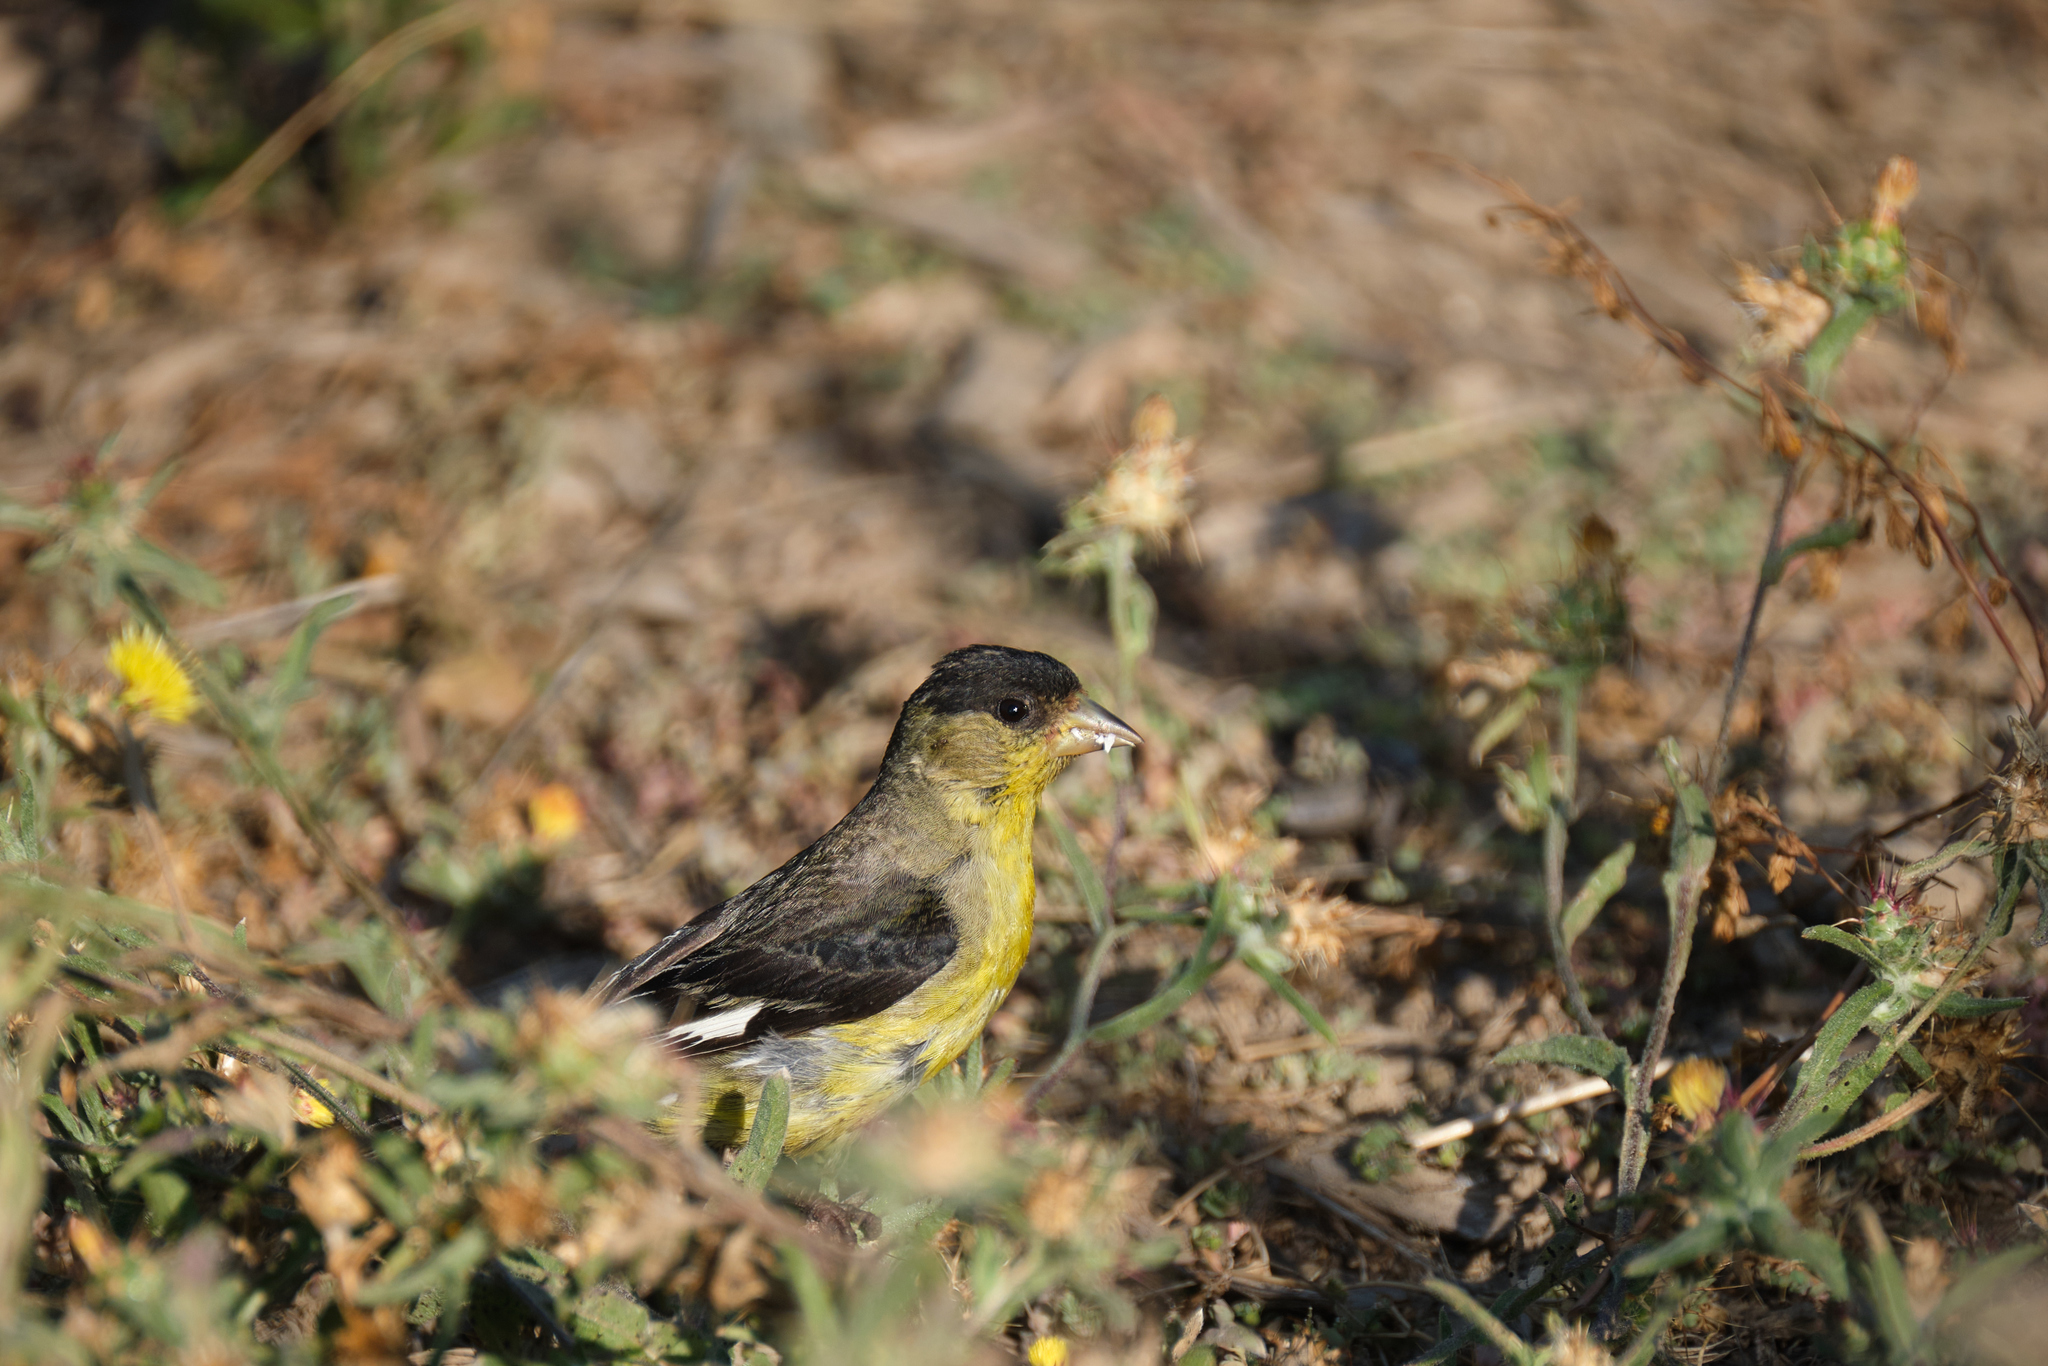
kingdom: Animalia
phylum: Chordata
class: Aves
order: Passeriformes
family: Fringillidae
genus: Spinus
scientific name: Spinus psaltria
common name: Lesser goldfinch
